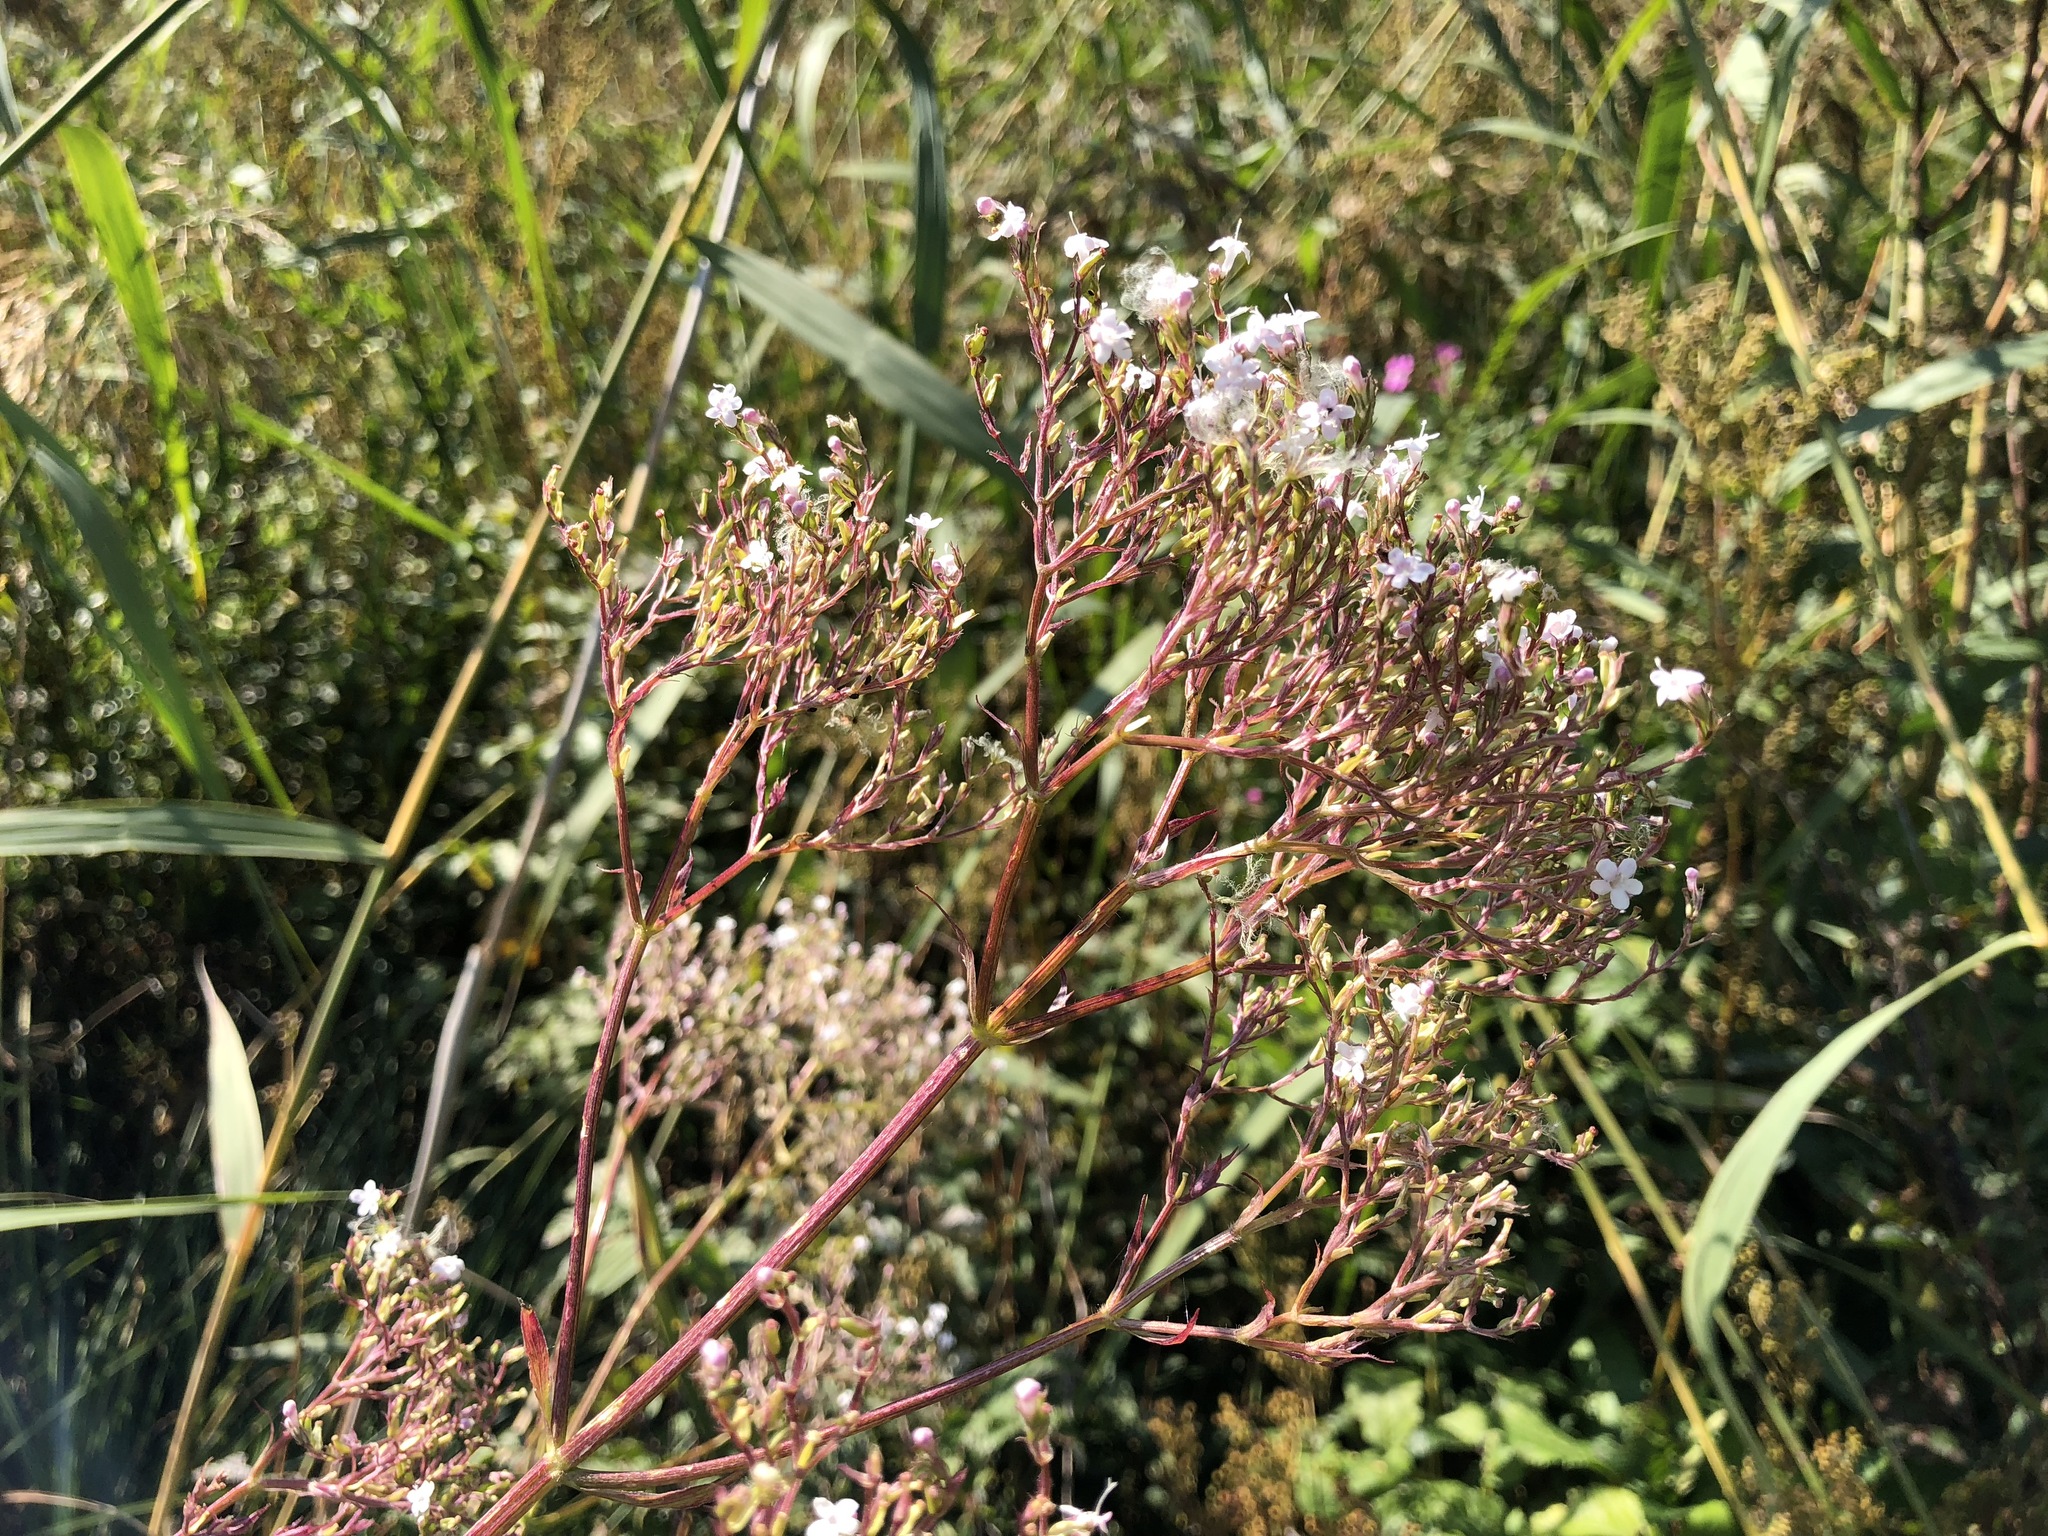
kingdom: Plantae
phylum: Tracheophyta
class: Magnoliopsida
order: Dipsacales
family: Caprifoliaceae
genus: Valeriana
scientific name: Valeriana officinalis
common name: Common valerian
